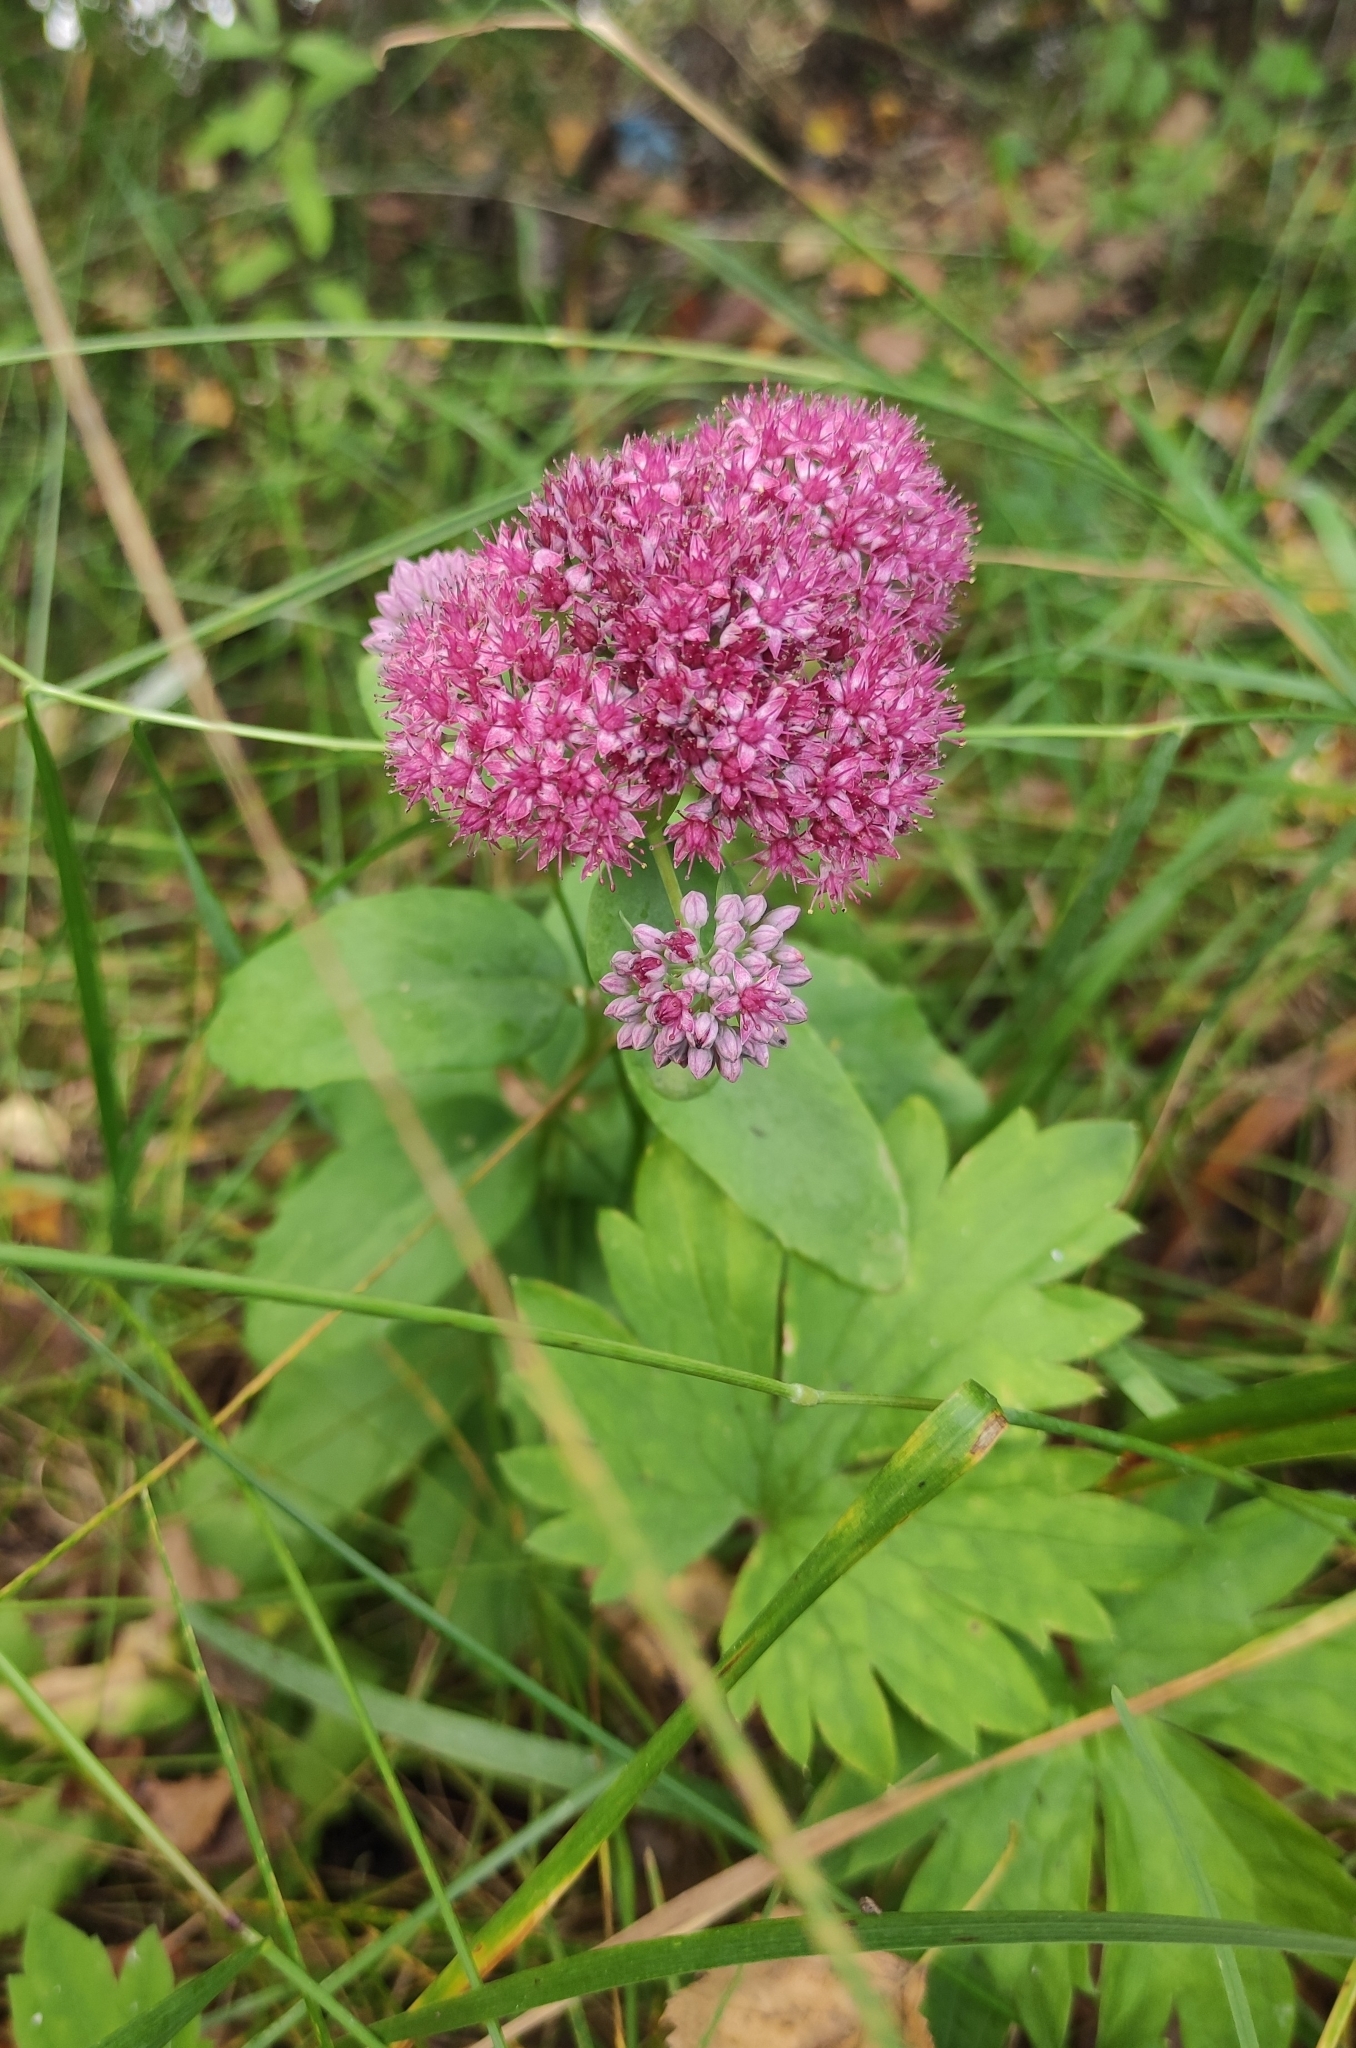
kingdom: Plantae
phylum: Tracheophyta
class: Magnoliopsida
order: Saxifragales
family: Crassulaceae
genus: Hylotelephium
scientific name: Hylotelephium telephium
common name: Live-forever
